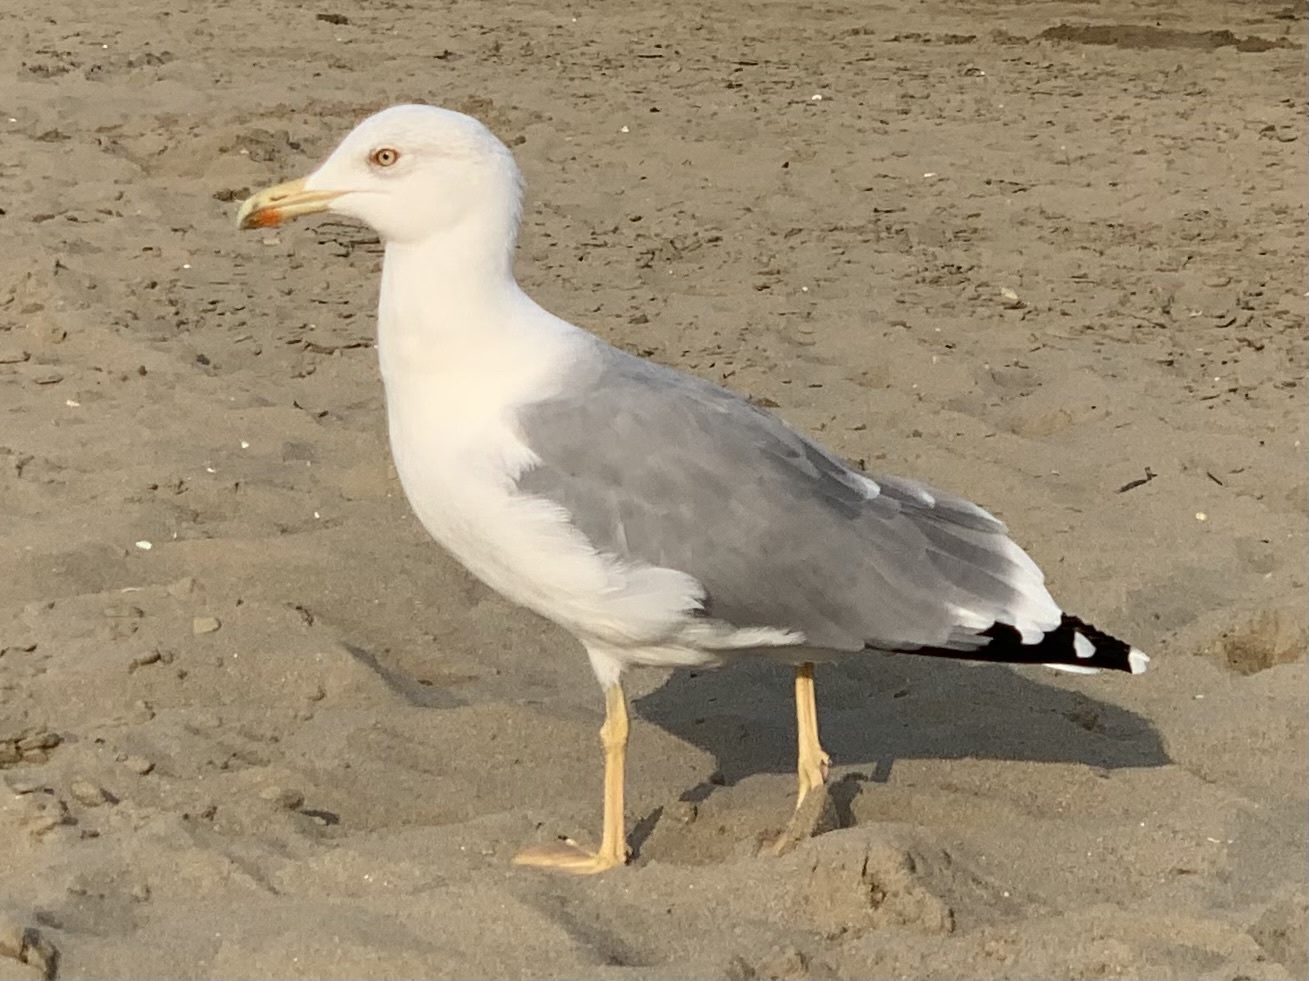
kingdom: Animalia
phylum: Chordata
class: Aves
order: Charadriiformes
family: Laridae
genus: Larus
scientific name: Larus michahellis
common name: Yellow-legged gull
